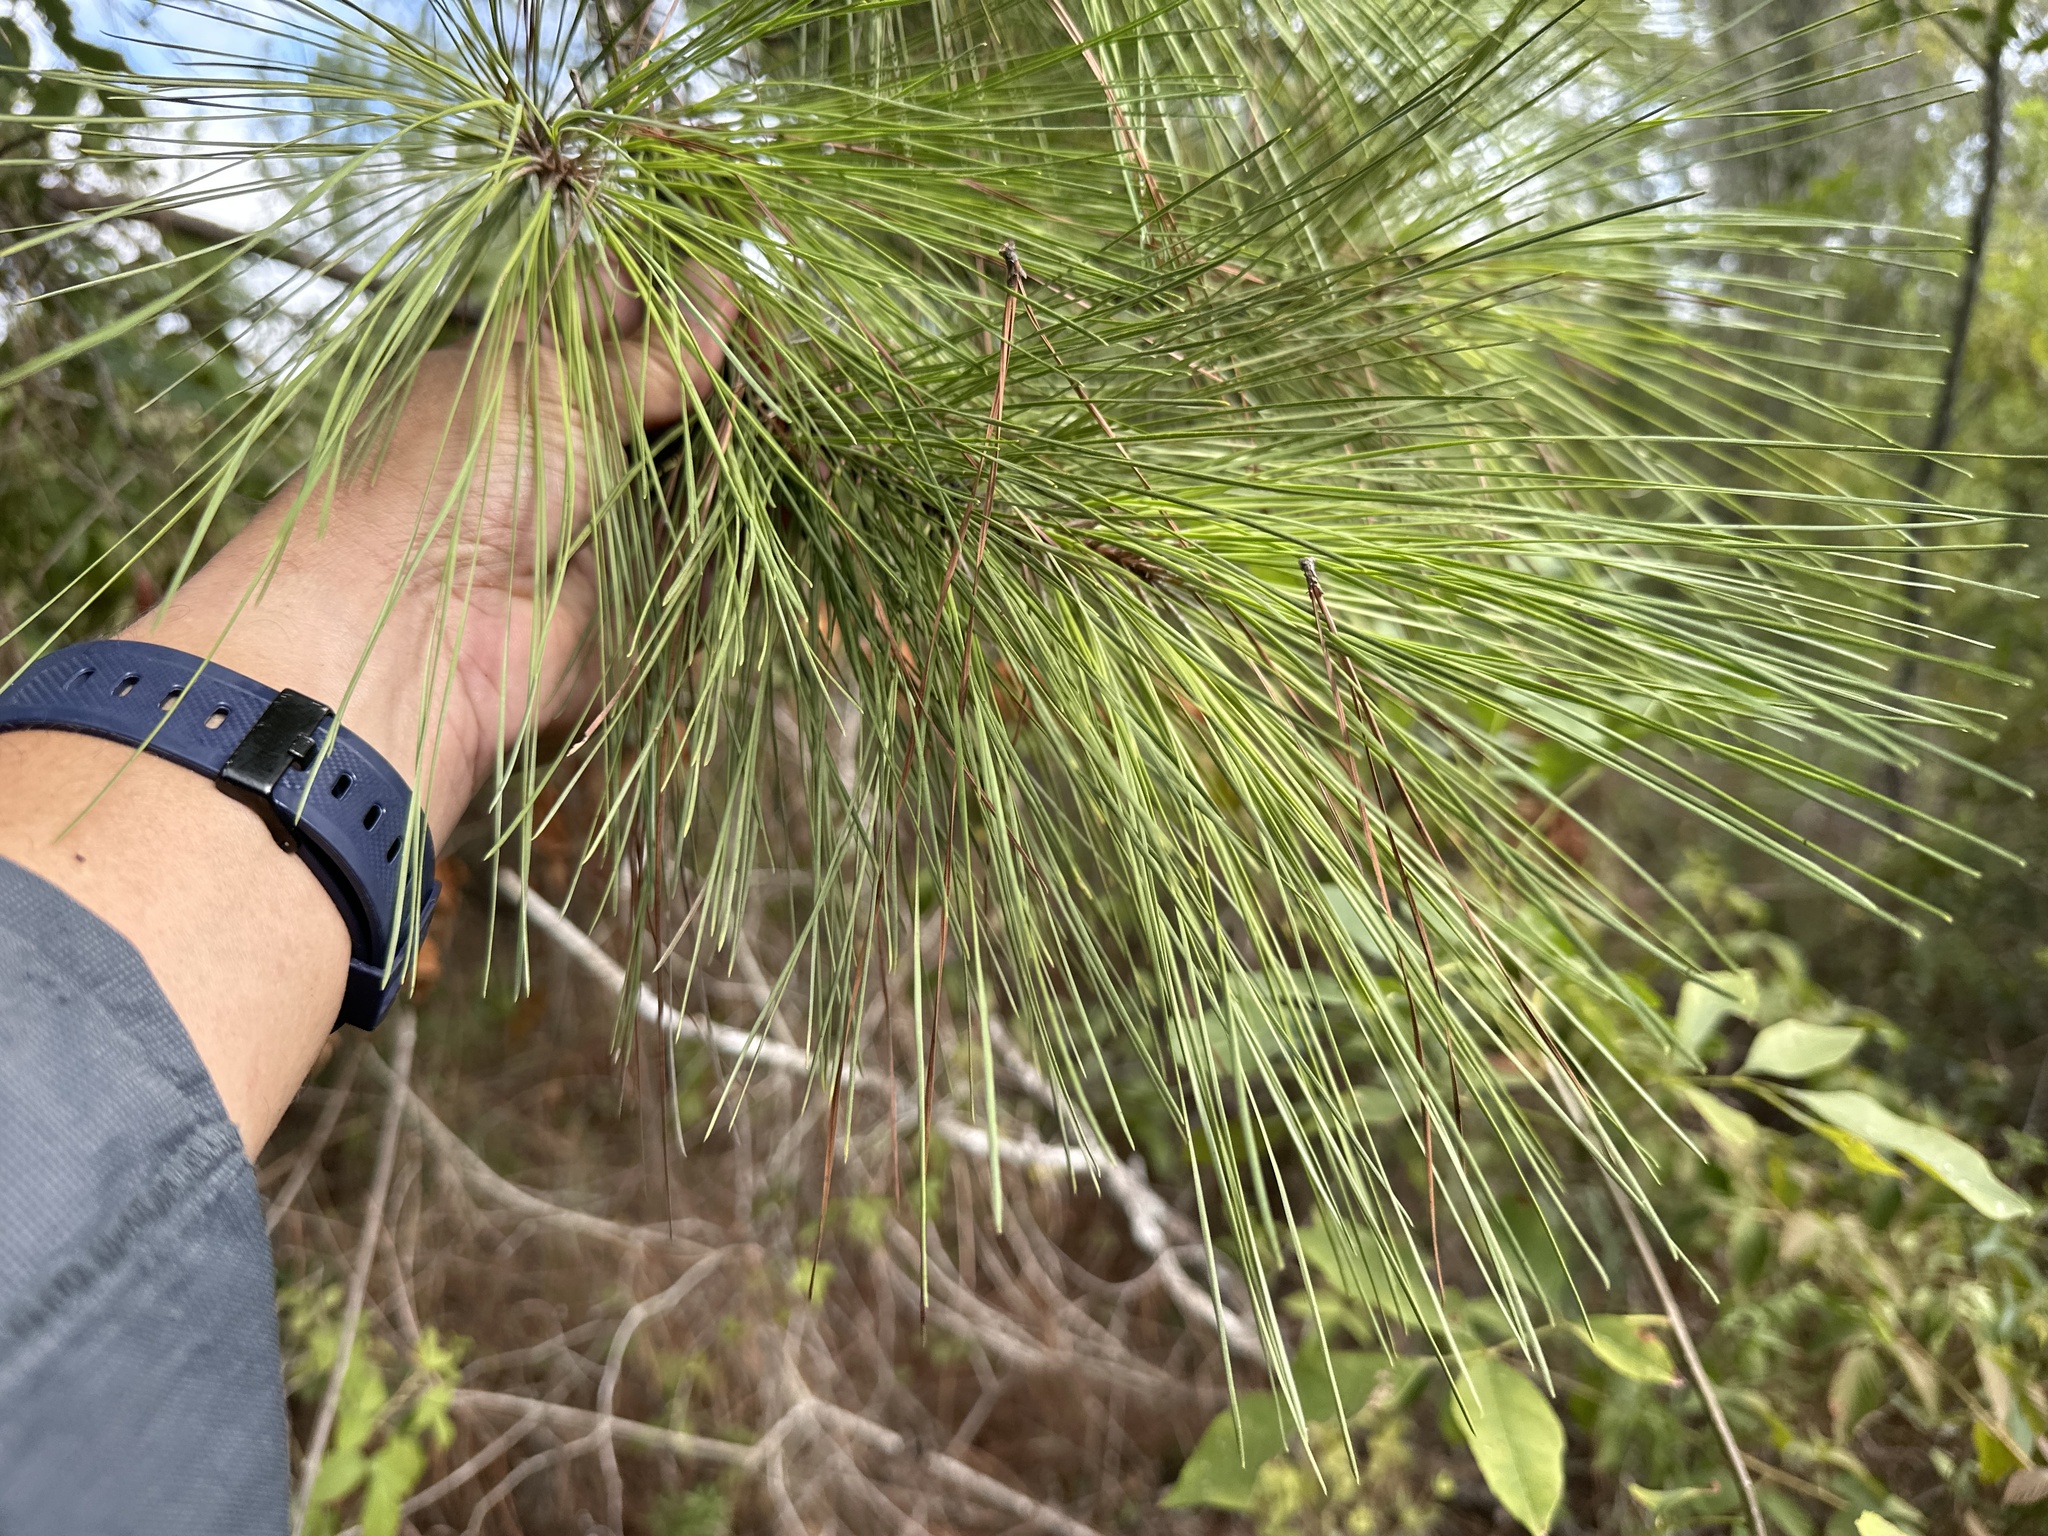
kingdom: Plantae
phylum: Tracheophyta
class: Pinopsida
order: Pinales
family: Pinaceae
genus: Pinus
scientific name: Pinus taeda
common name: Loblolly pine
